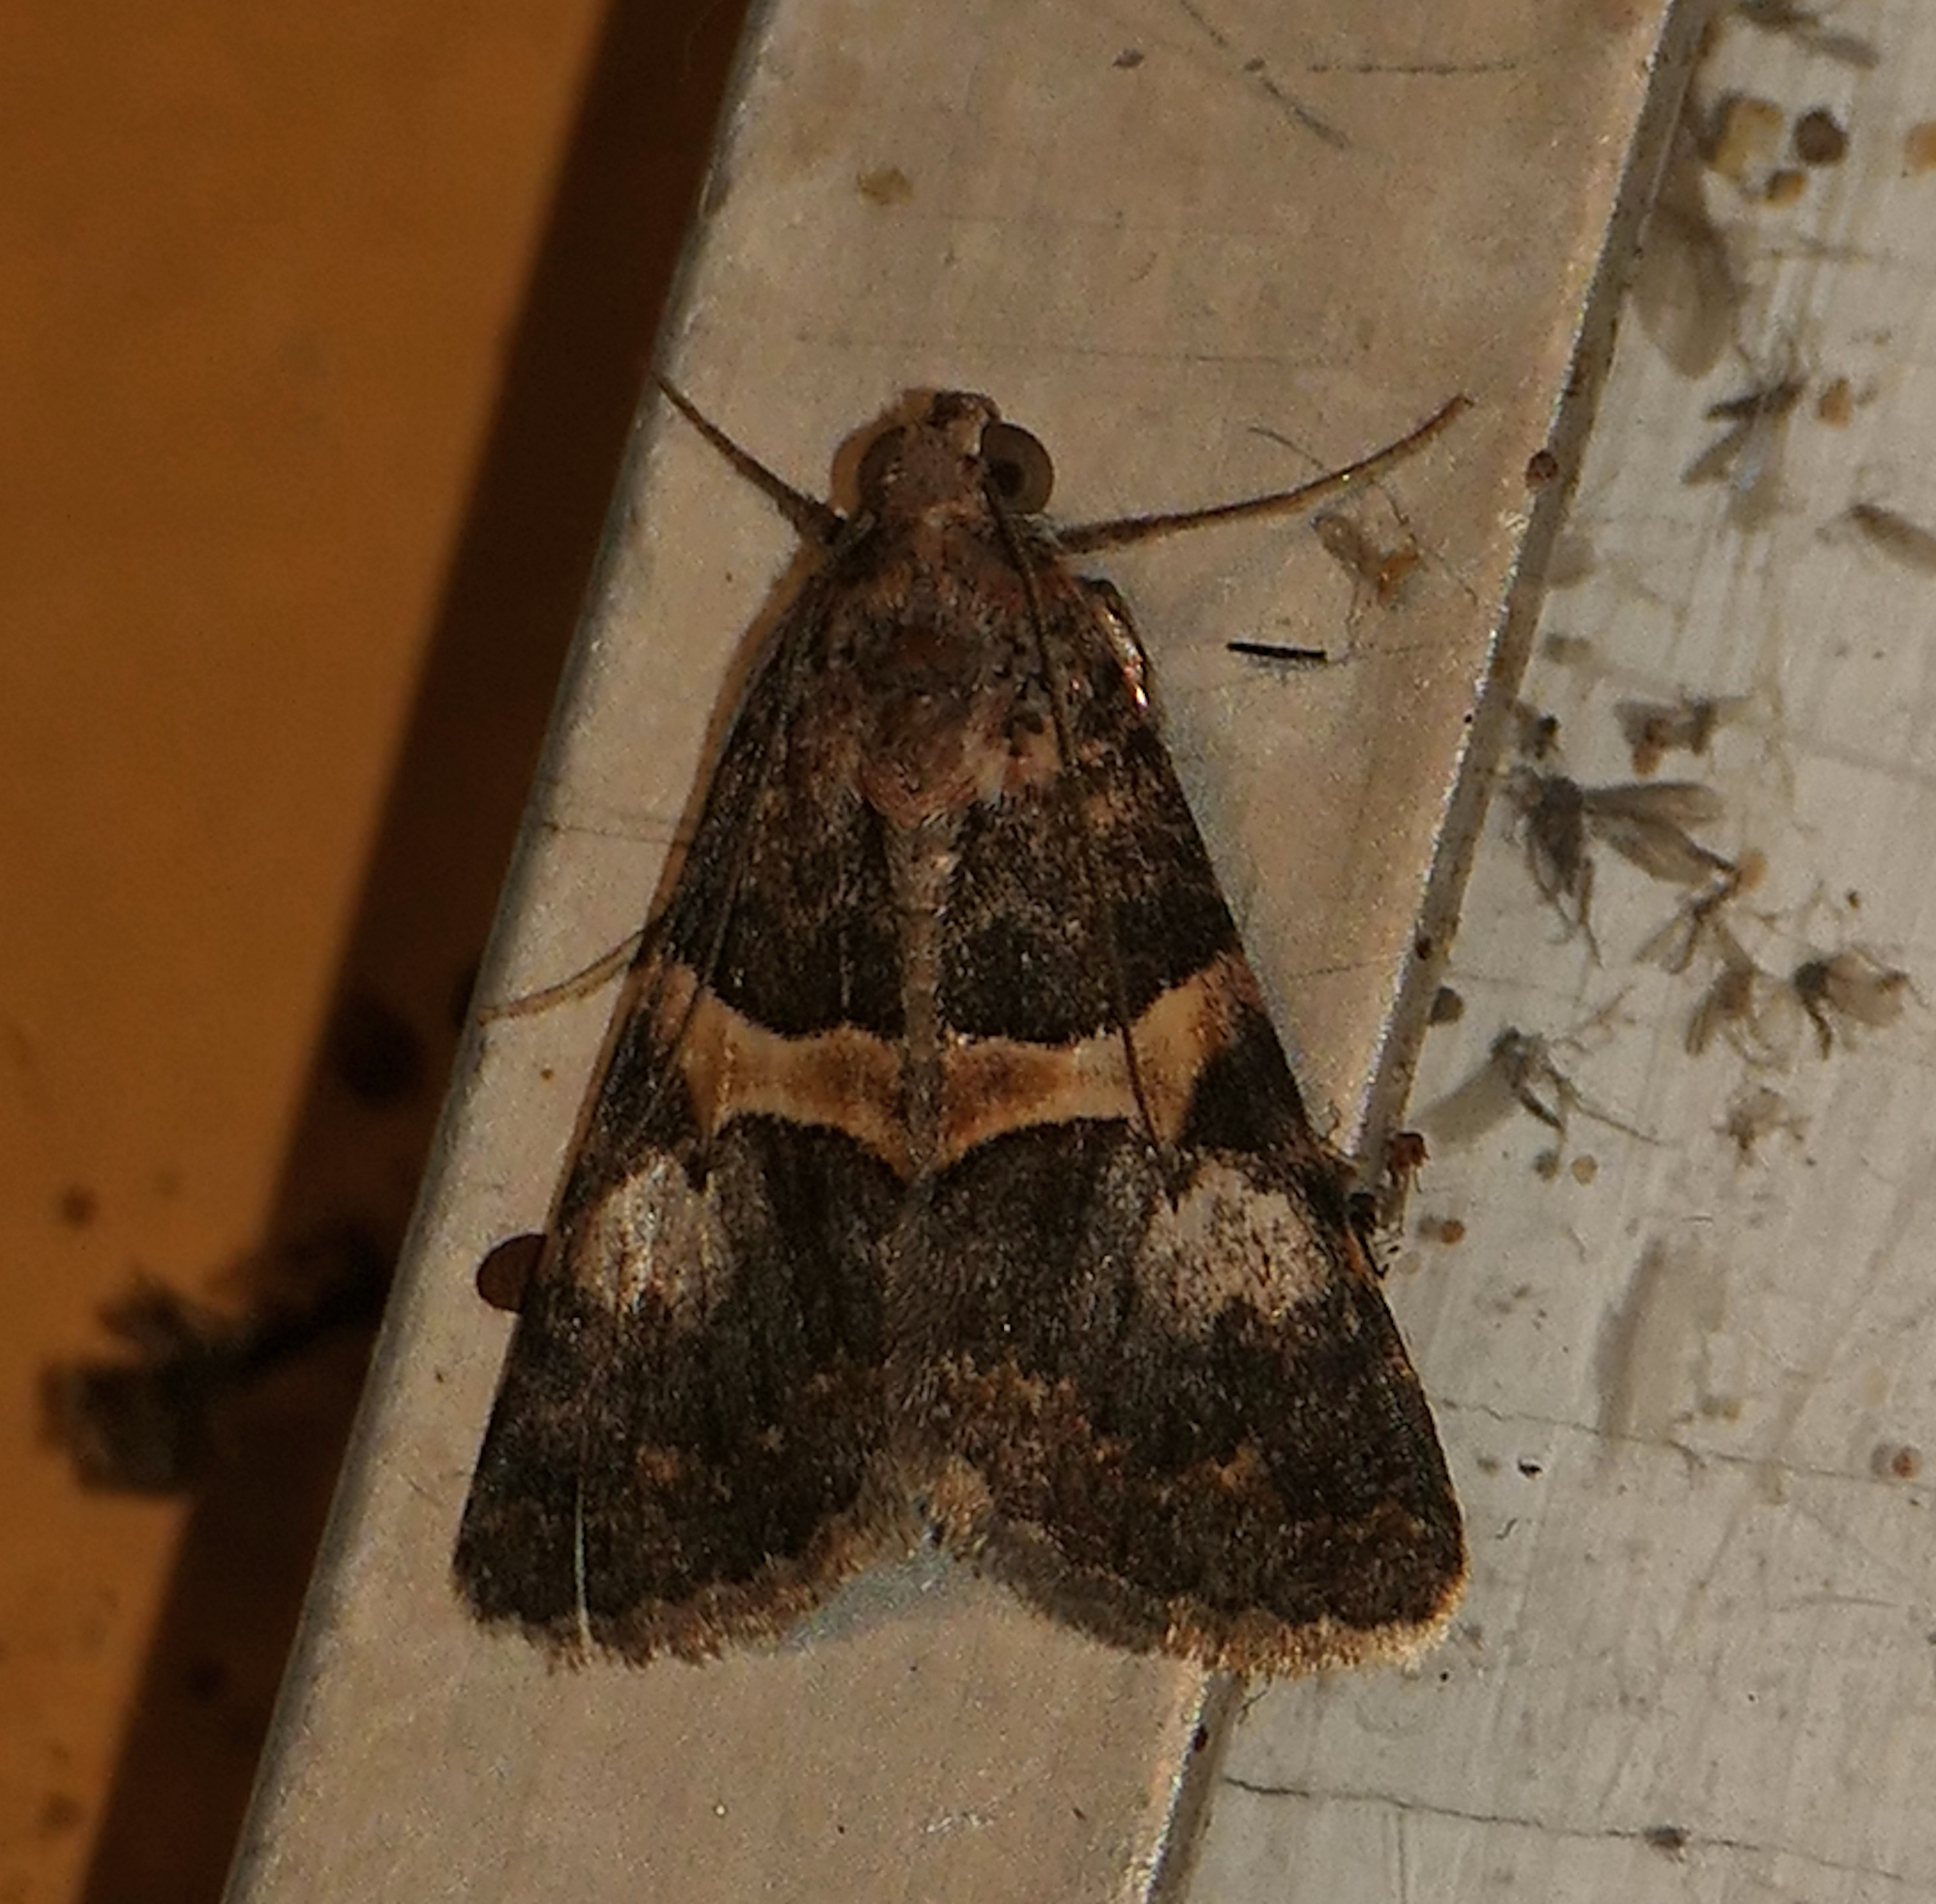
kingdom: Animalia
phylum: Arthropoda
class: Insecta
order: Lepidoptera
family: Erebidae
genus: Melipotis
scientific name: Melipotis jucunda
